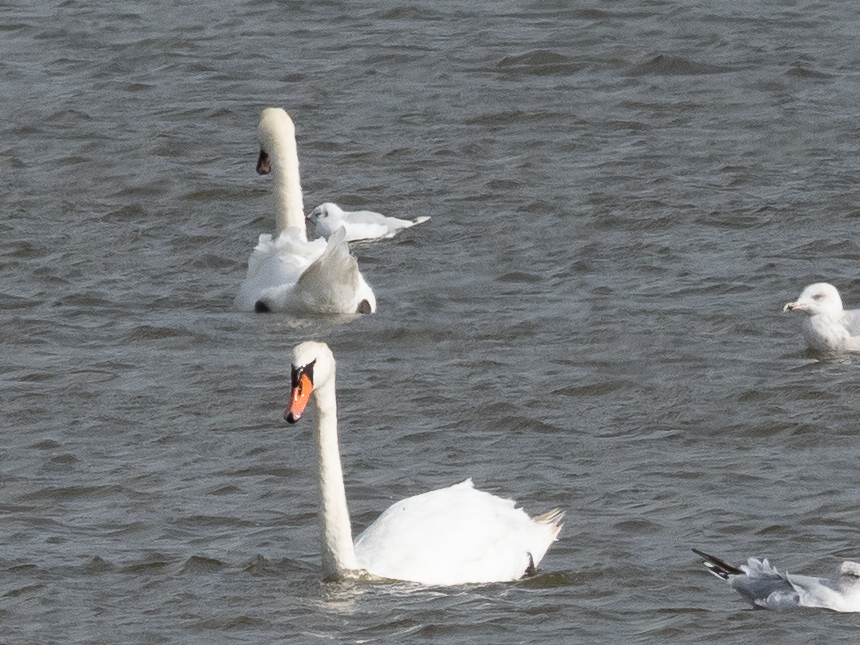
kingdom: Animalia
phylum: Chordata
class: Aves
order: Anseriformes
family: Anatidae
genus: Cygnus
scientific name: Cygnus olor
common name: Mute swan
